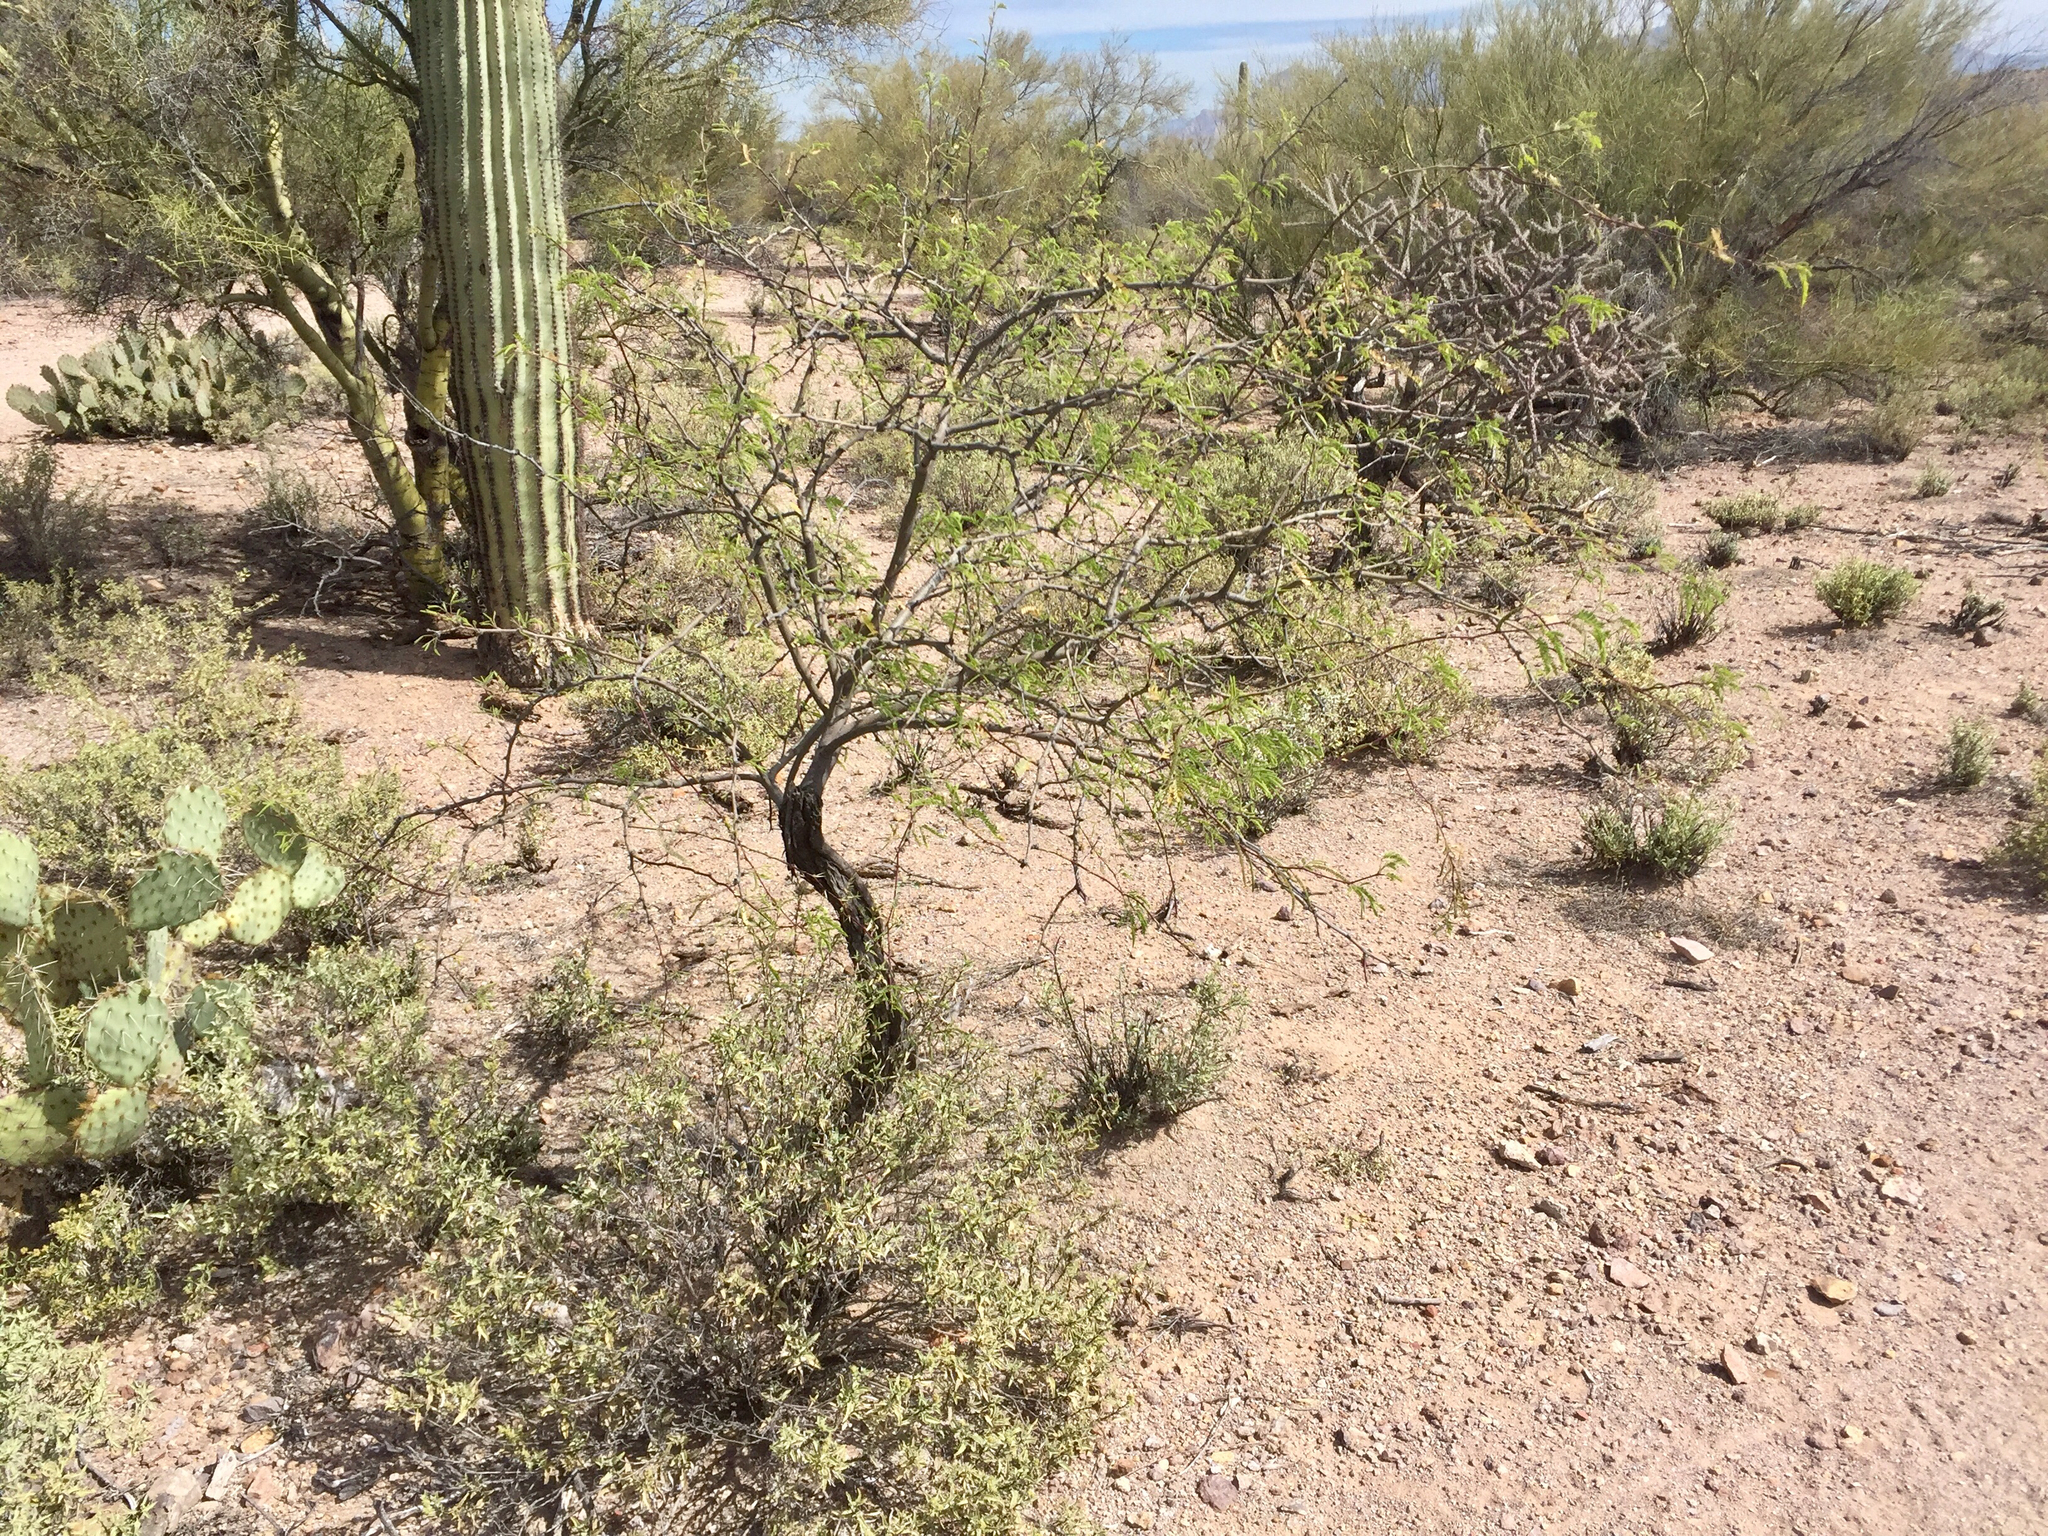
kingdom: Plantae
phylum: Tracheophyta
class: Magnoliopsida
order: Fabales
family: Fabaceae
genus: Prosopis
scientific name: Prosopis velutina
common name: Velvet mesquite
